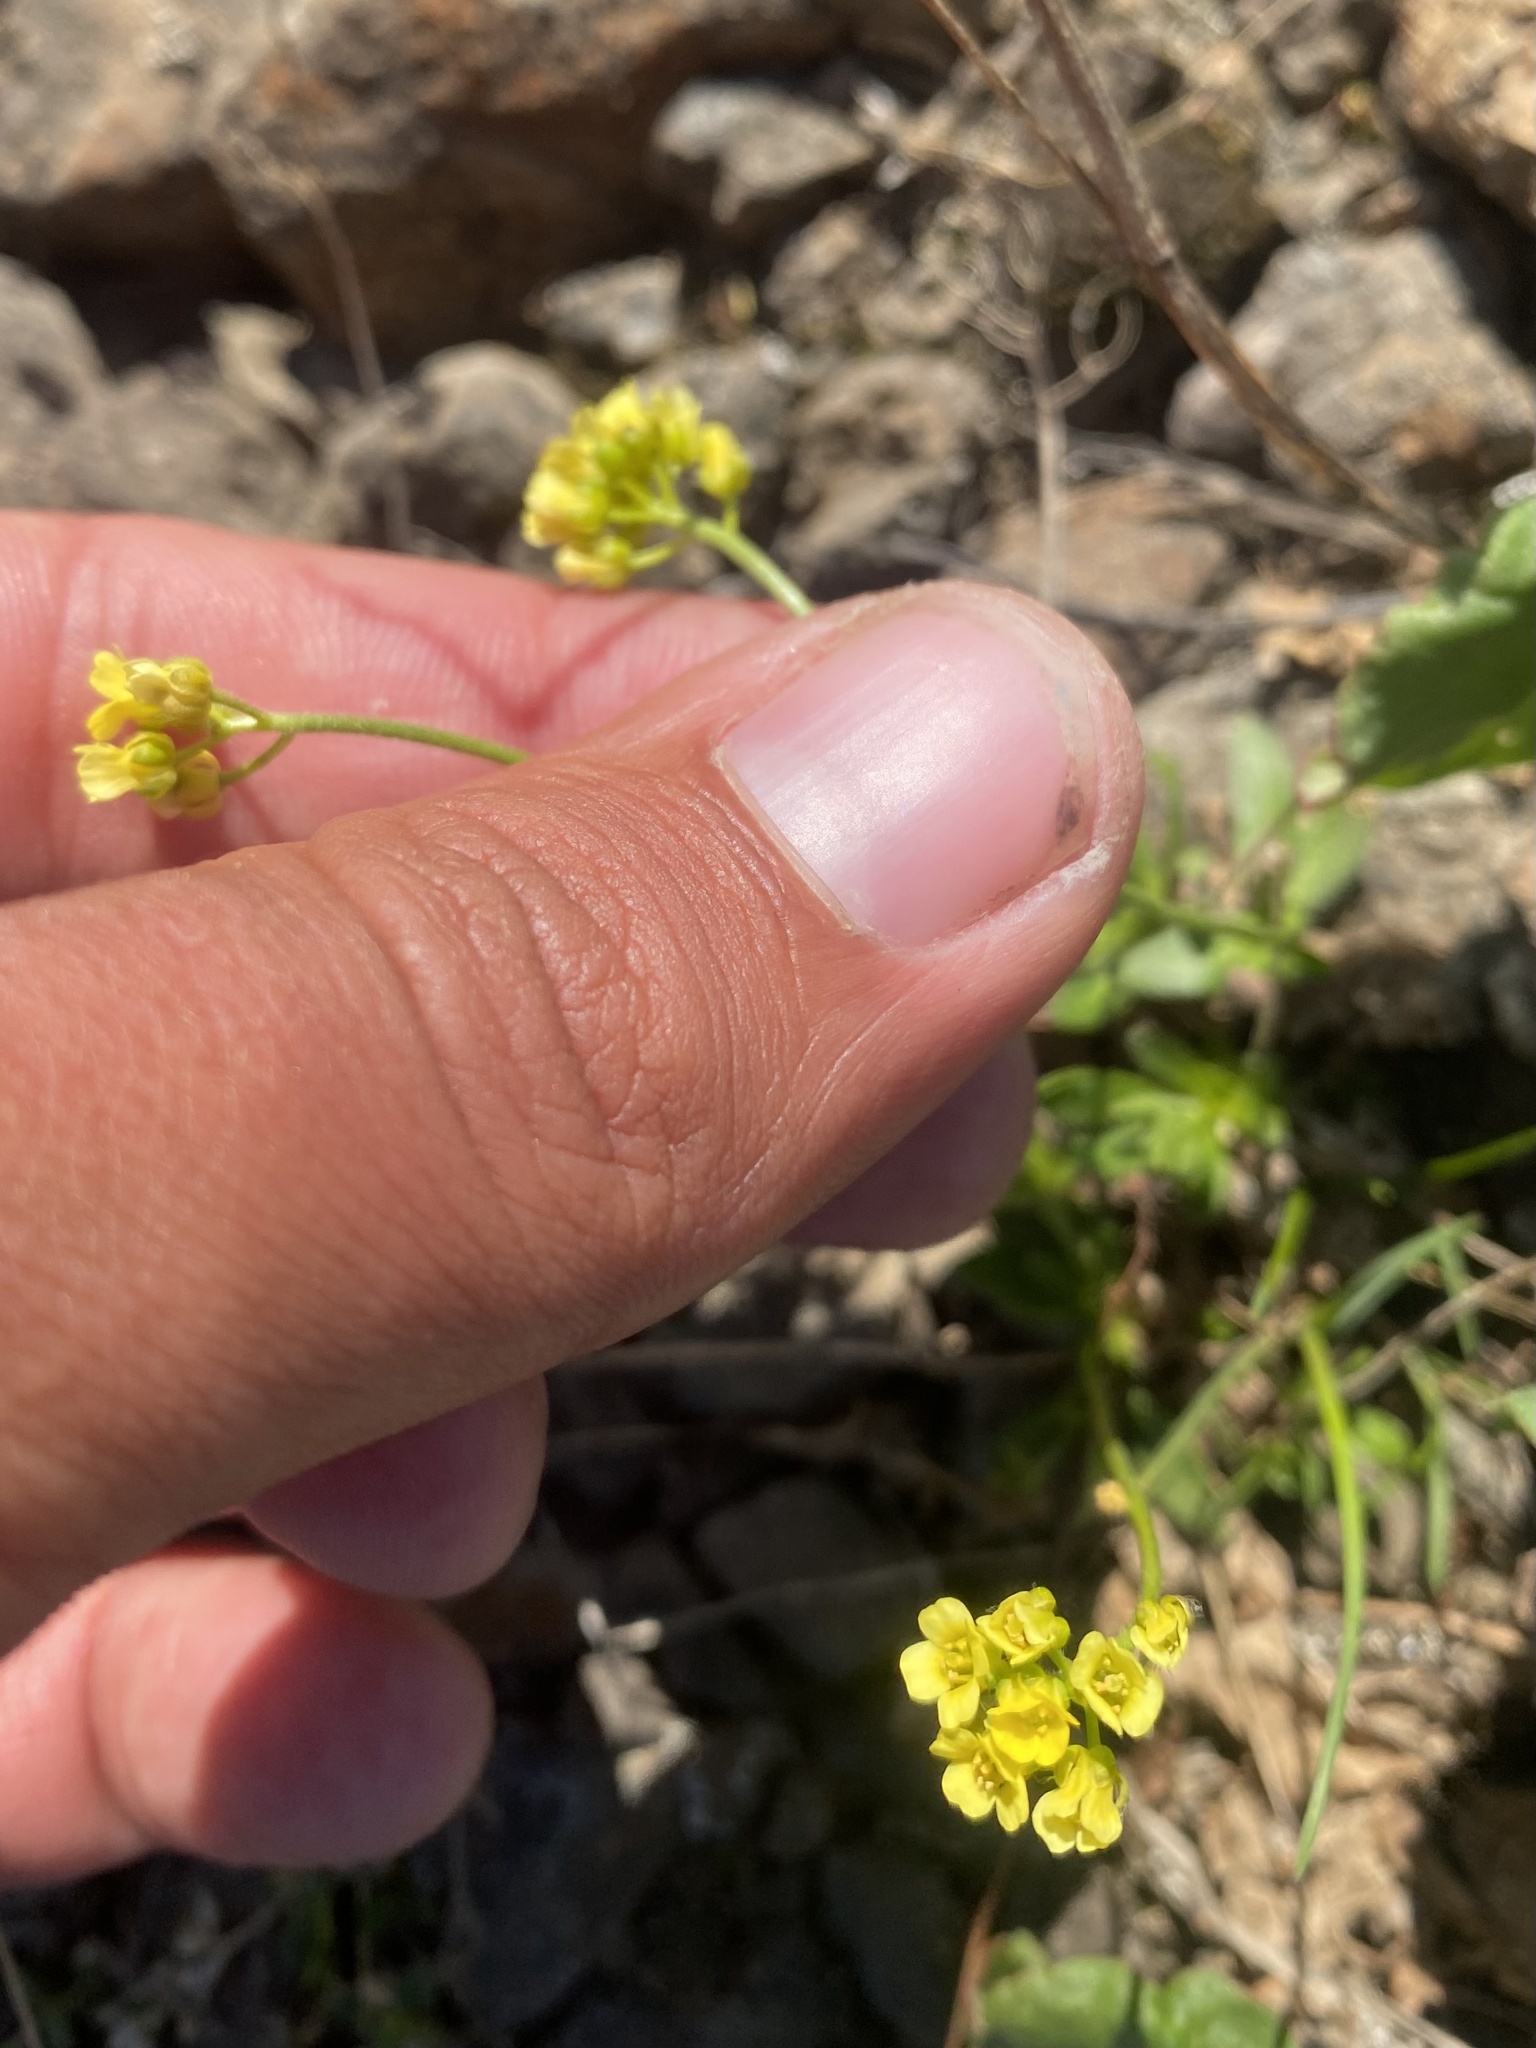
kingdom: Plantae
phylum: Tracheophyta
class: Magnoliopsida
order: Brassicales
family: Brassicaceae
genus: Draba
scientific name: Draba glacialis
